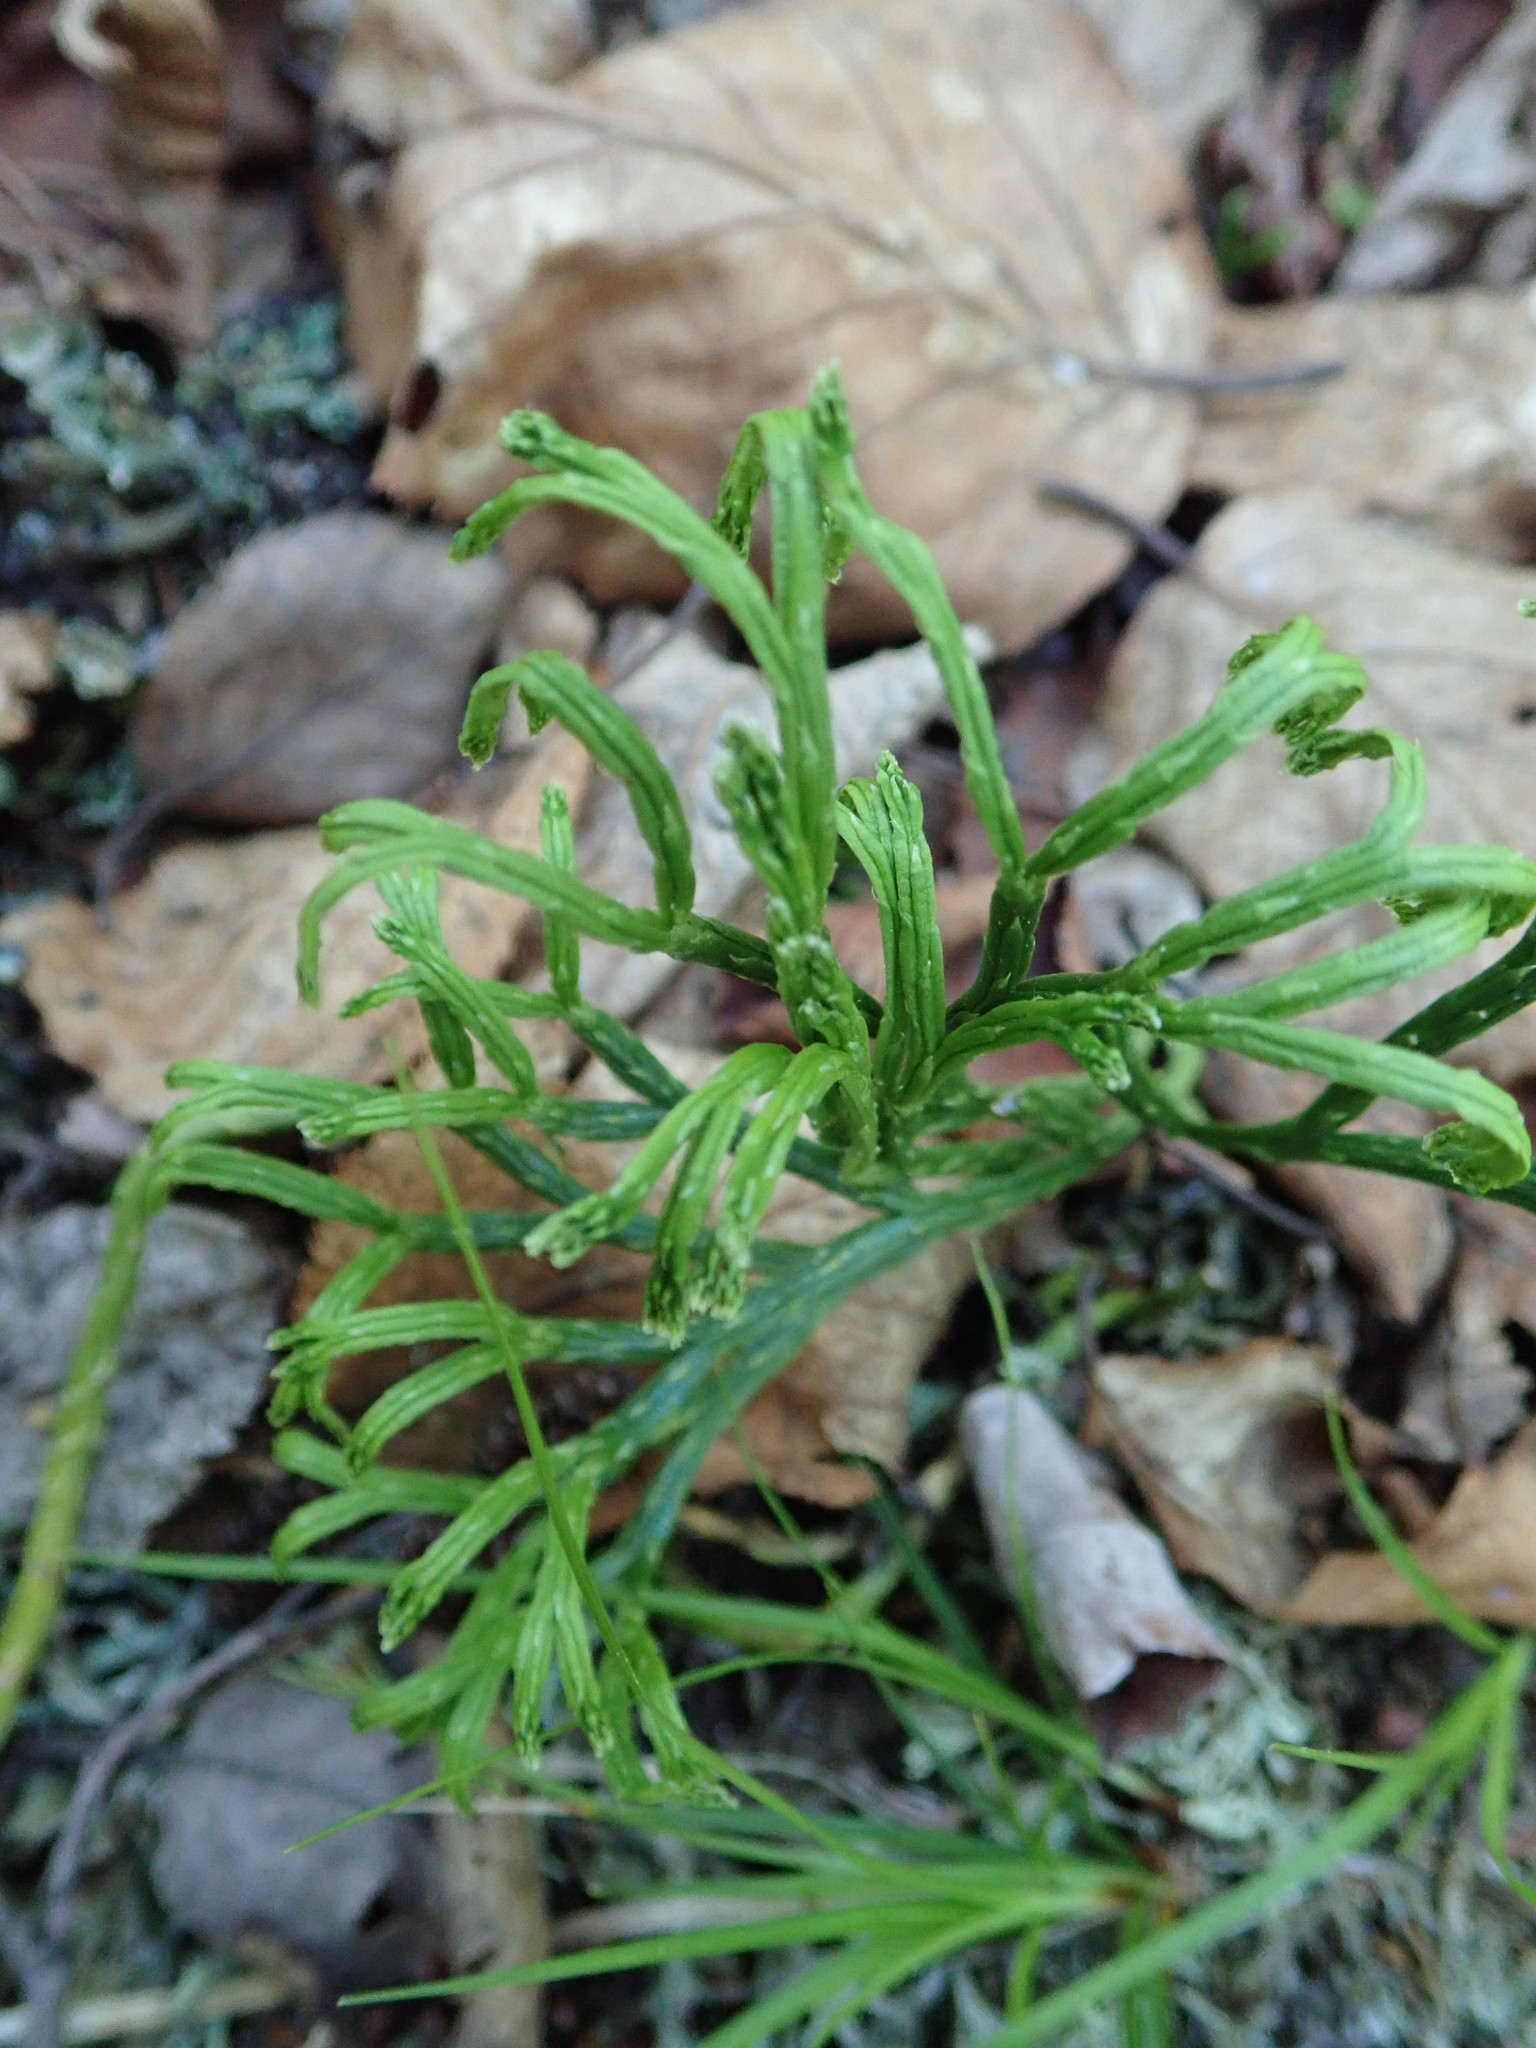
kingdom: Plantae
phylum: Tracheophyta
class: Lycopodiopsida
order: Lycopodiales
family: Lycopodiaceae
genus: Diphasiastrum
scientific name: Diphasiastrum complanatum
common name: Northern running-pine
